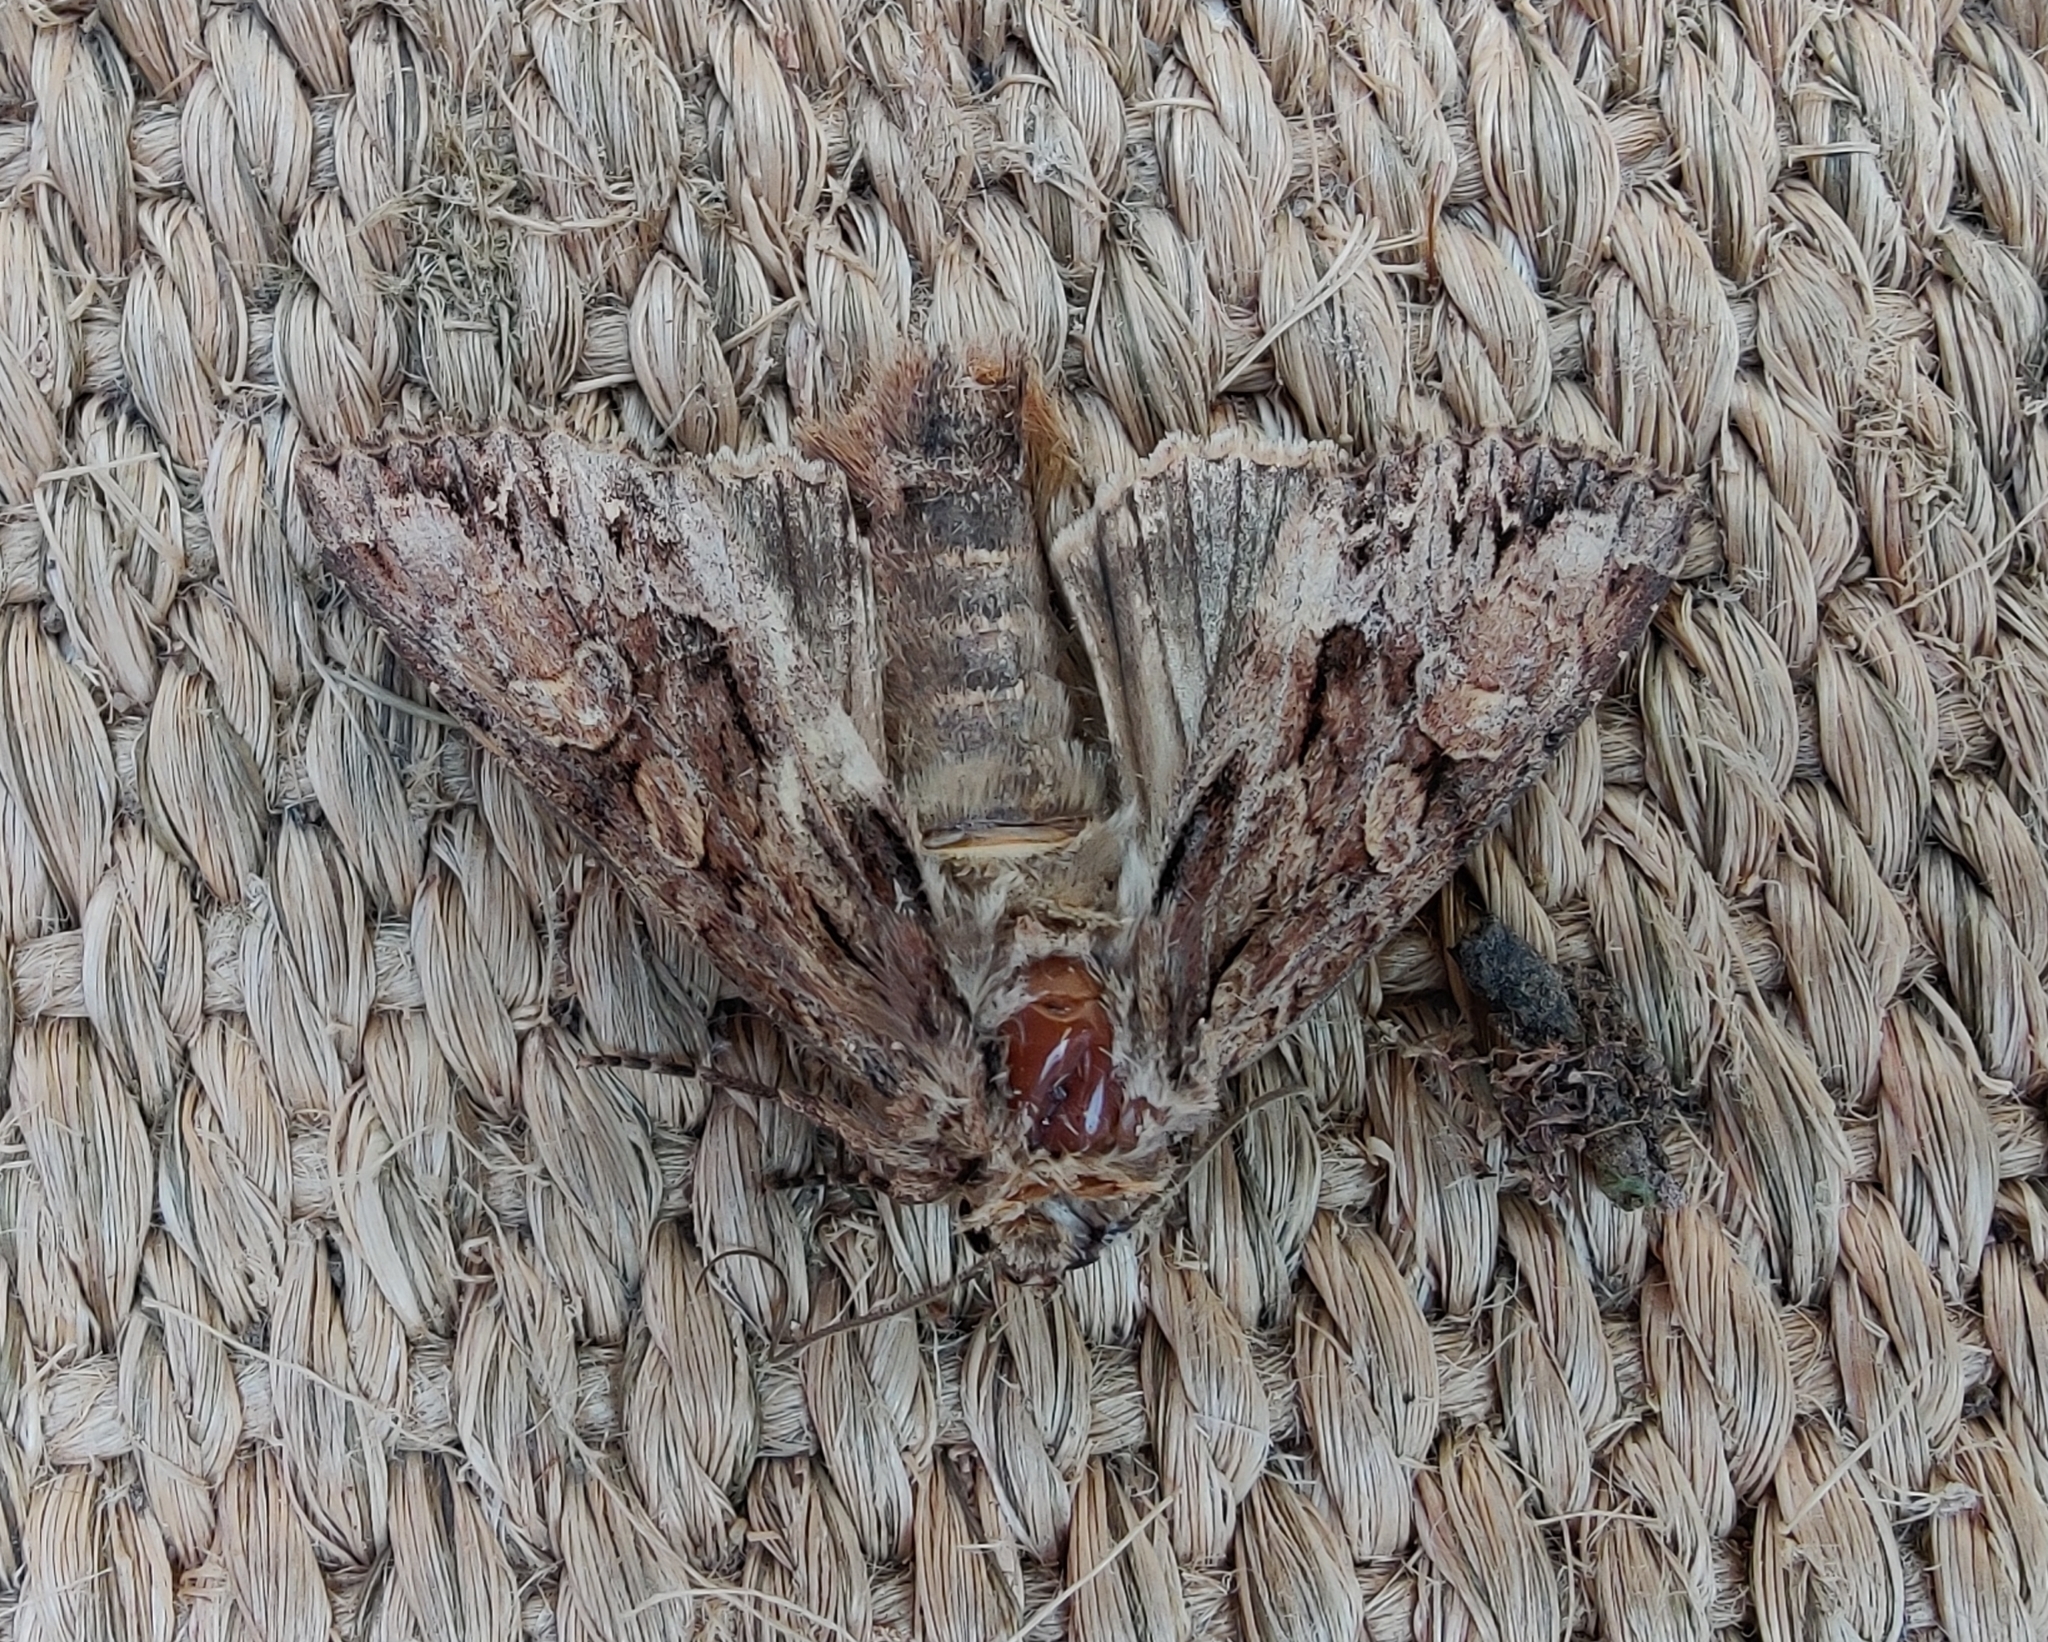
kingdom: Animalia
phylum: Arthropoda
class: Insecta
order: Lepidoptera
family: Noctuidae
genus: Apamea
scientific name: Apamea monoglypha
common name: Dark arches
